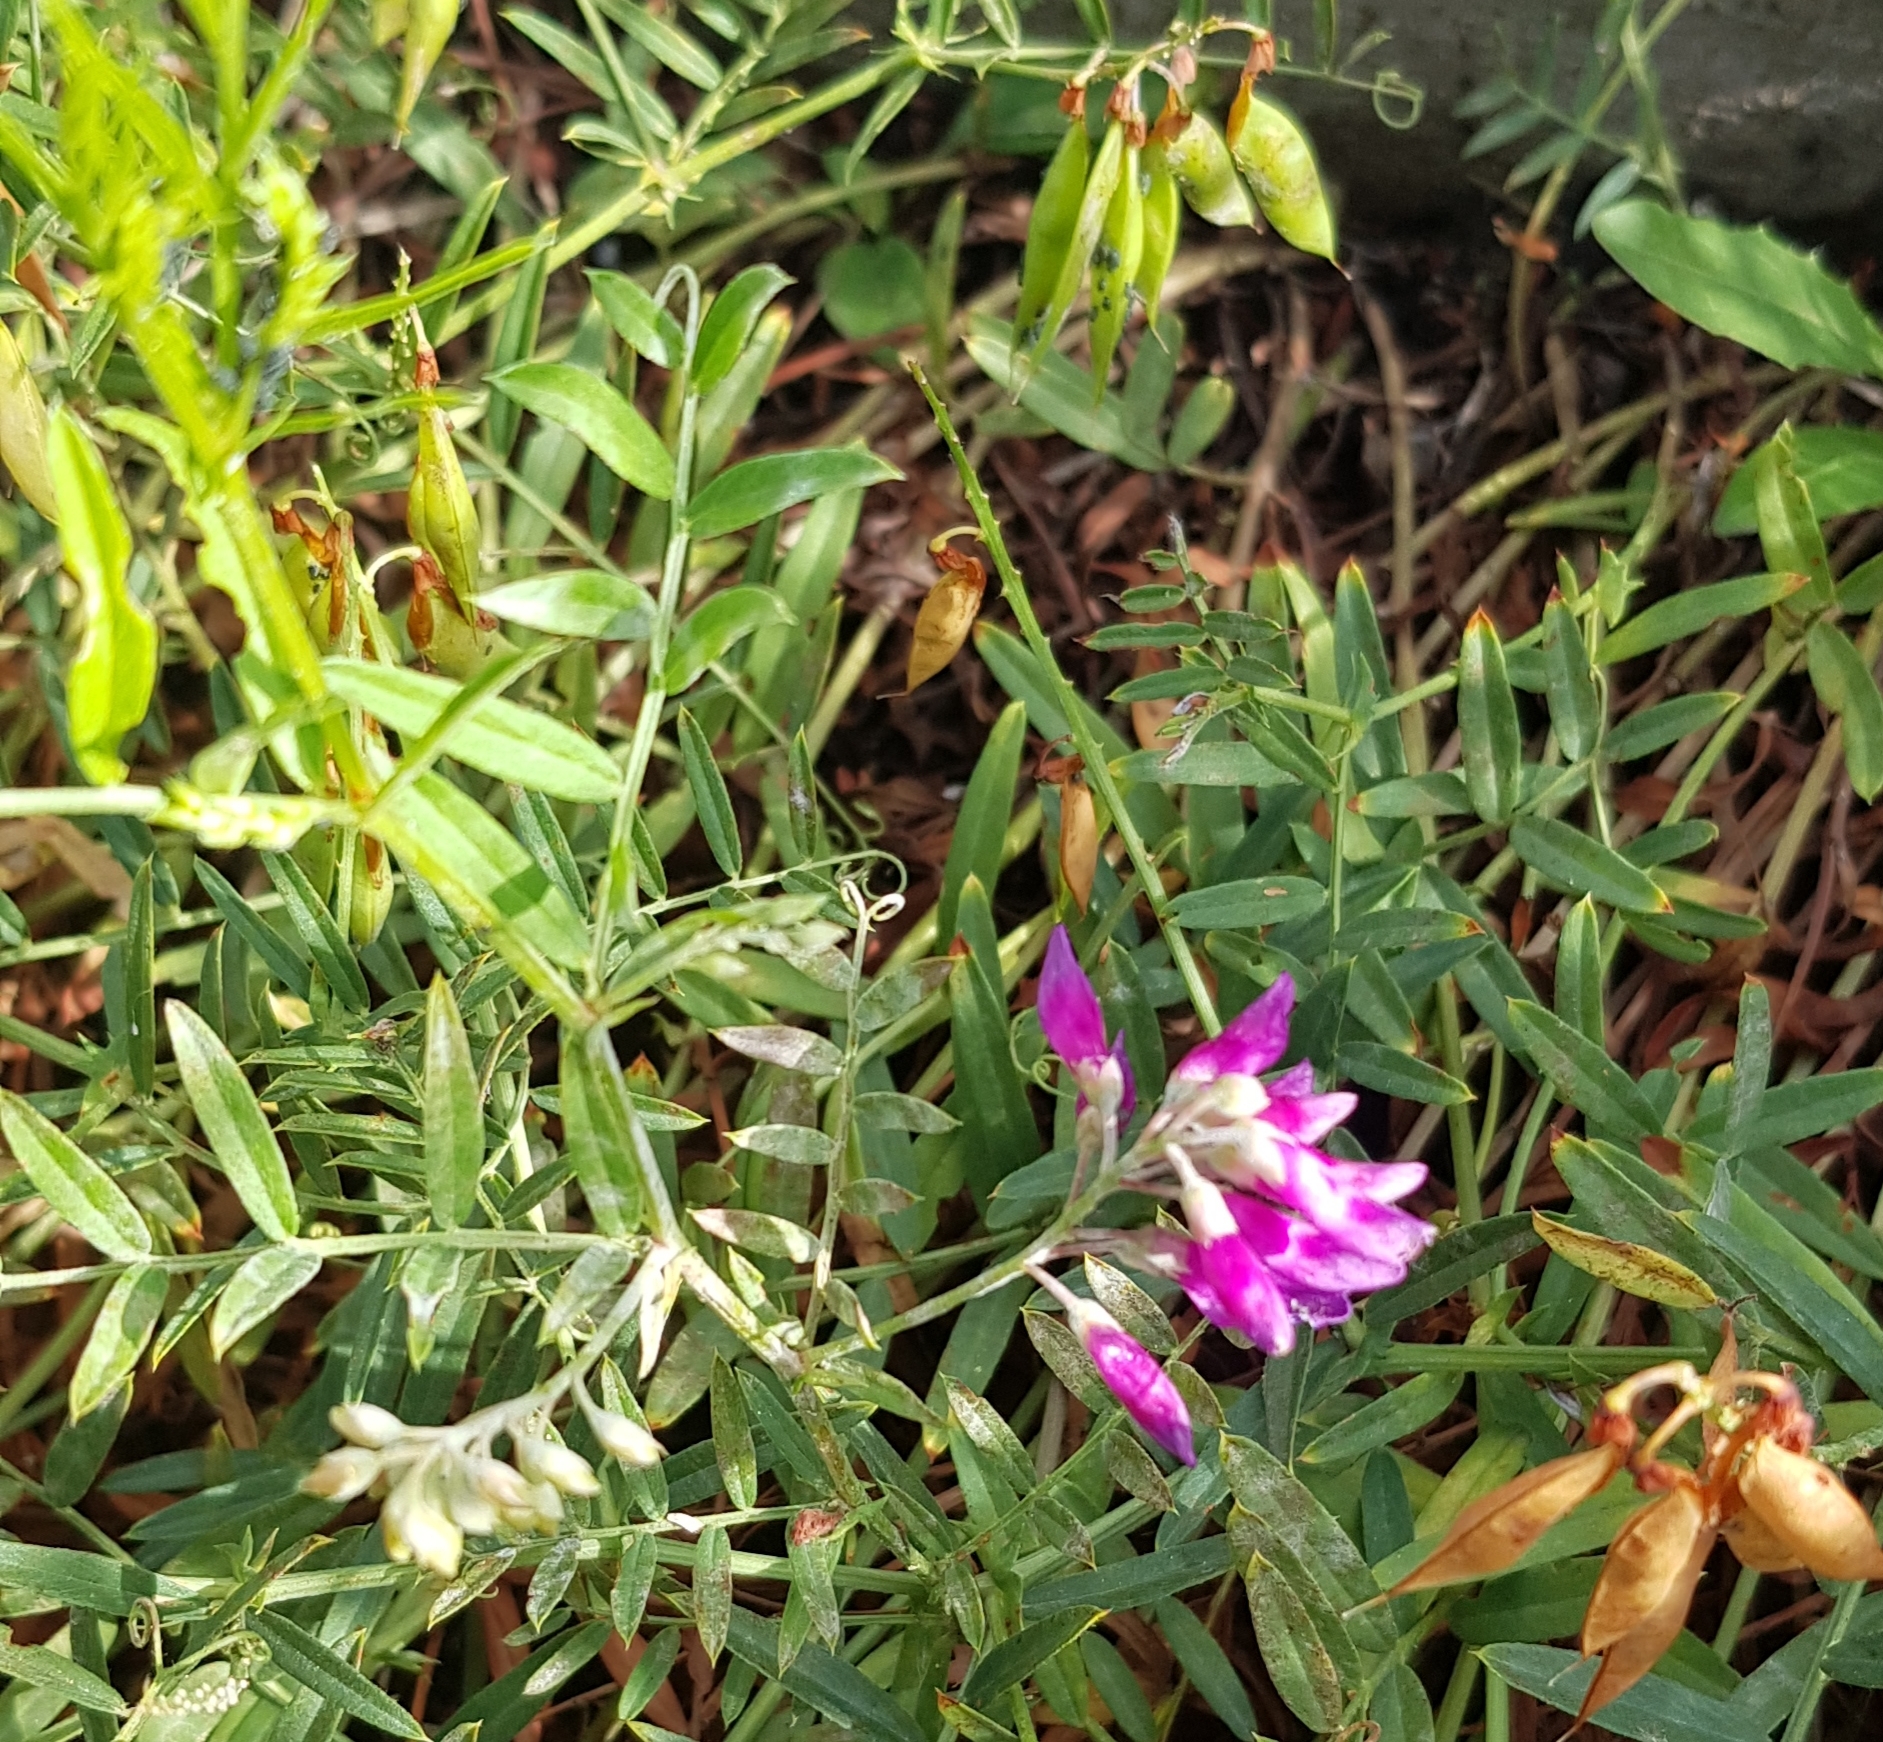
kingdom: Plantae
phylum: Tracheophyta
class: Magnoliopsida
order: Fabales
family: Fabaceae
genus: Vicia
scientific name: Vicia amoena
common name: Cheder ebs
